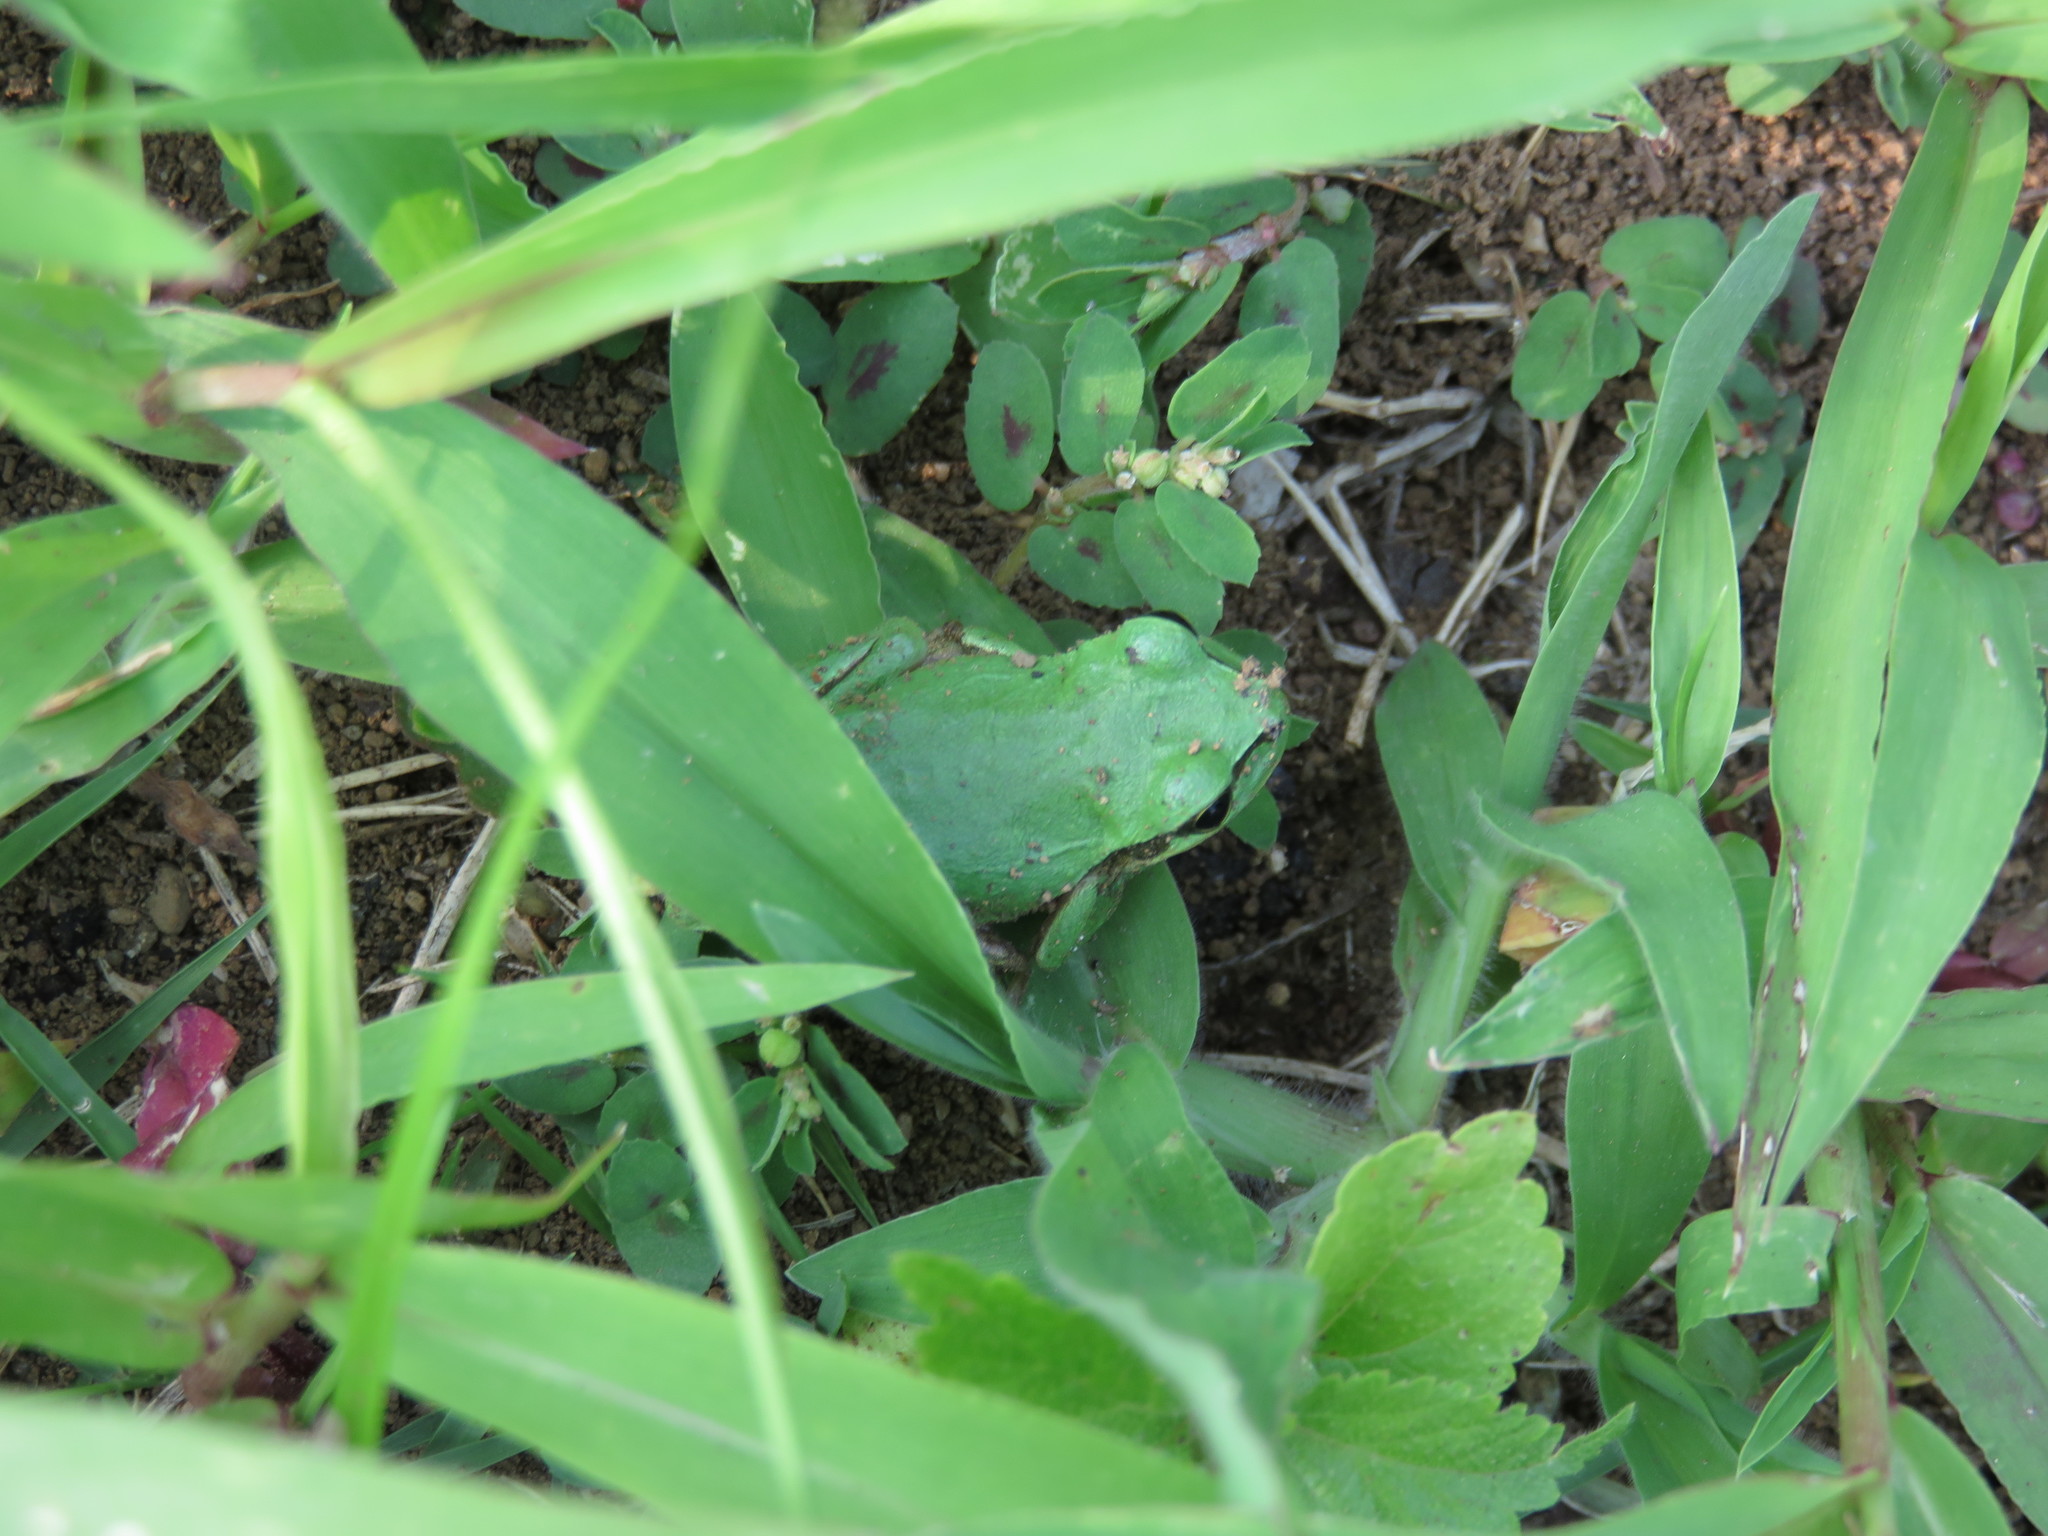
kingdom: Animalia
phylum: Chordata
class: Amphibia
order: Anura
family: Hylidae
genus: Dryophytes
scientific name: Dryophytes japonicus
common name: Japanese treefrog
